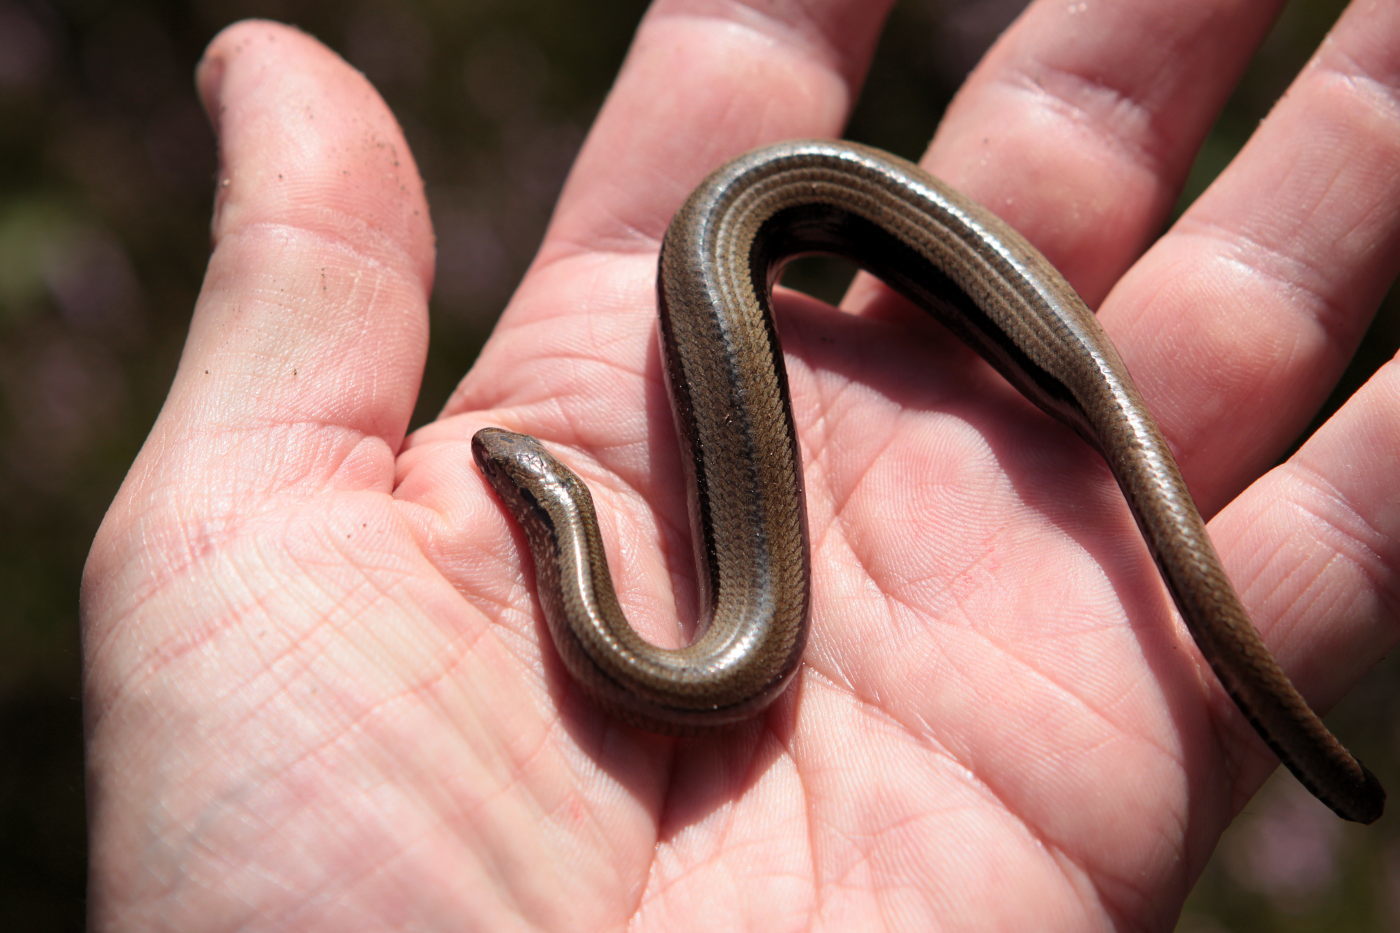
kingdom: Animalia
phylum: Chordata
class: Squamata
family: Anguidae
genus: Anguis
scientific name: Anguis fragilis
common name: Slow worm
